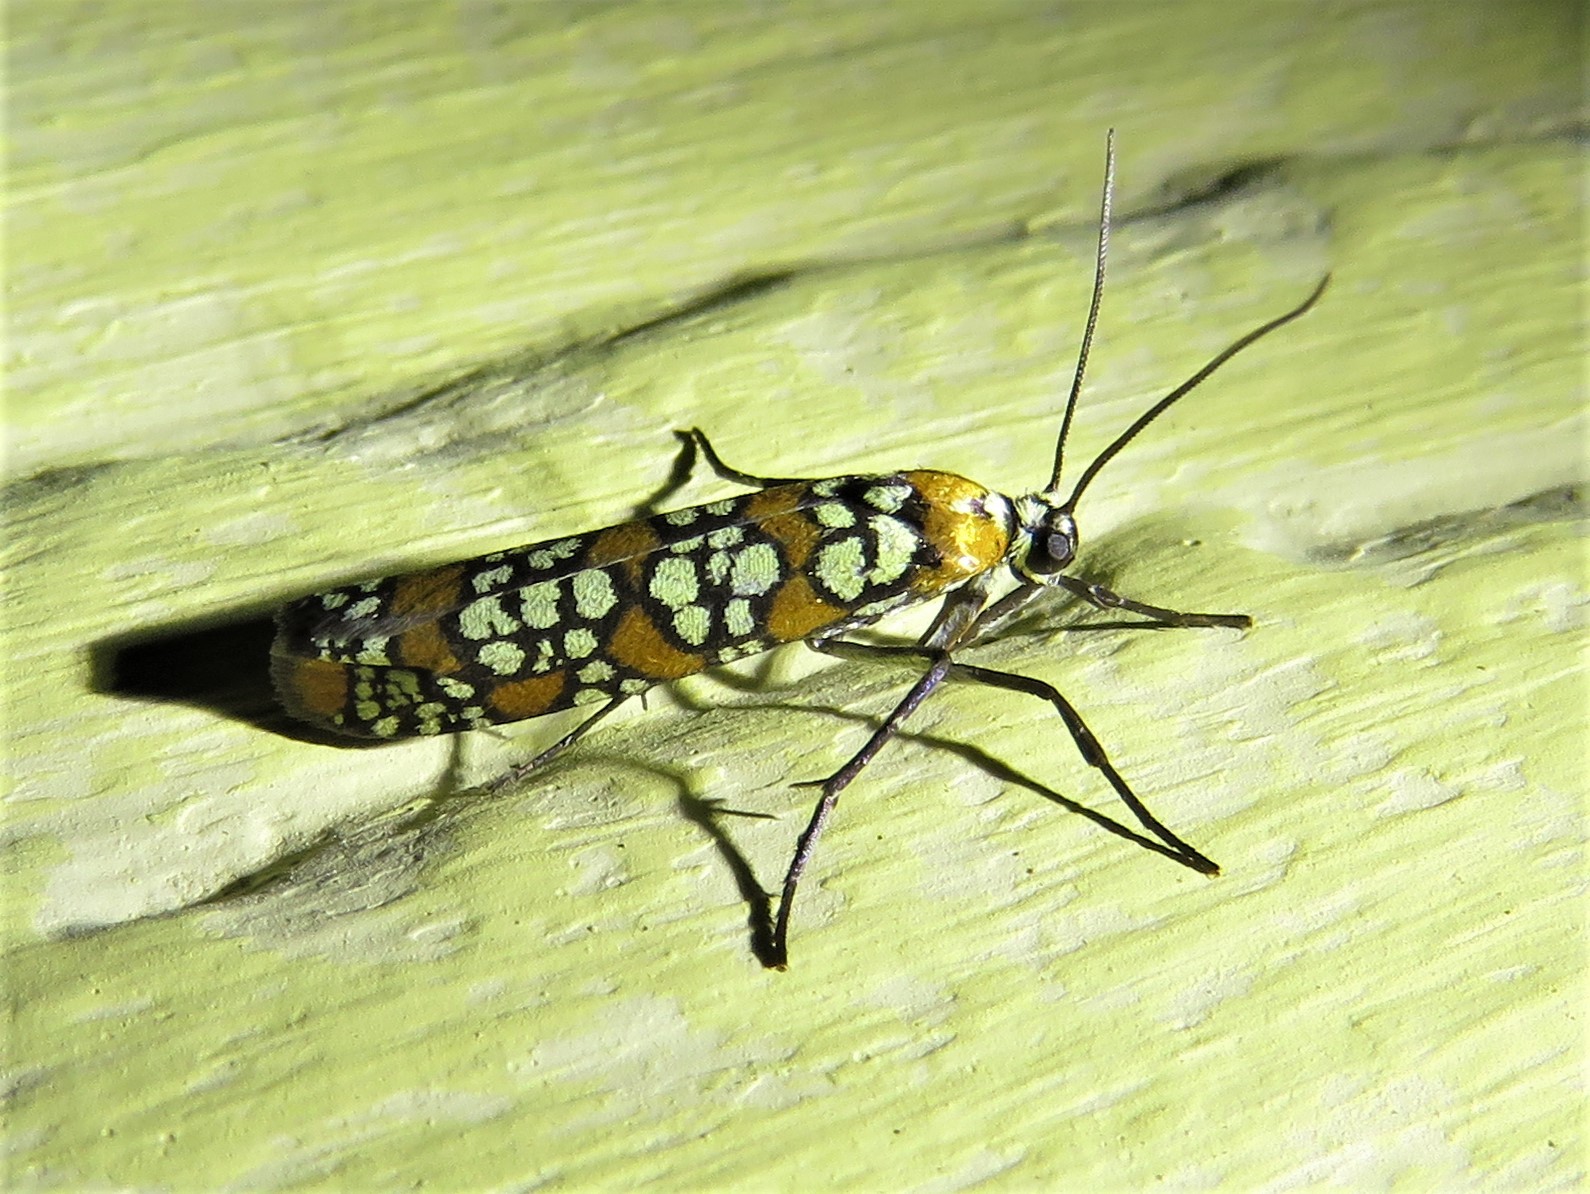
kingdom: Animalia
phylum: Arthropoda
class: Insecta
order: Lepidoptera
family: Attevidae
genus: Atteva
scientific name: Atteva punctella
